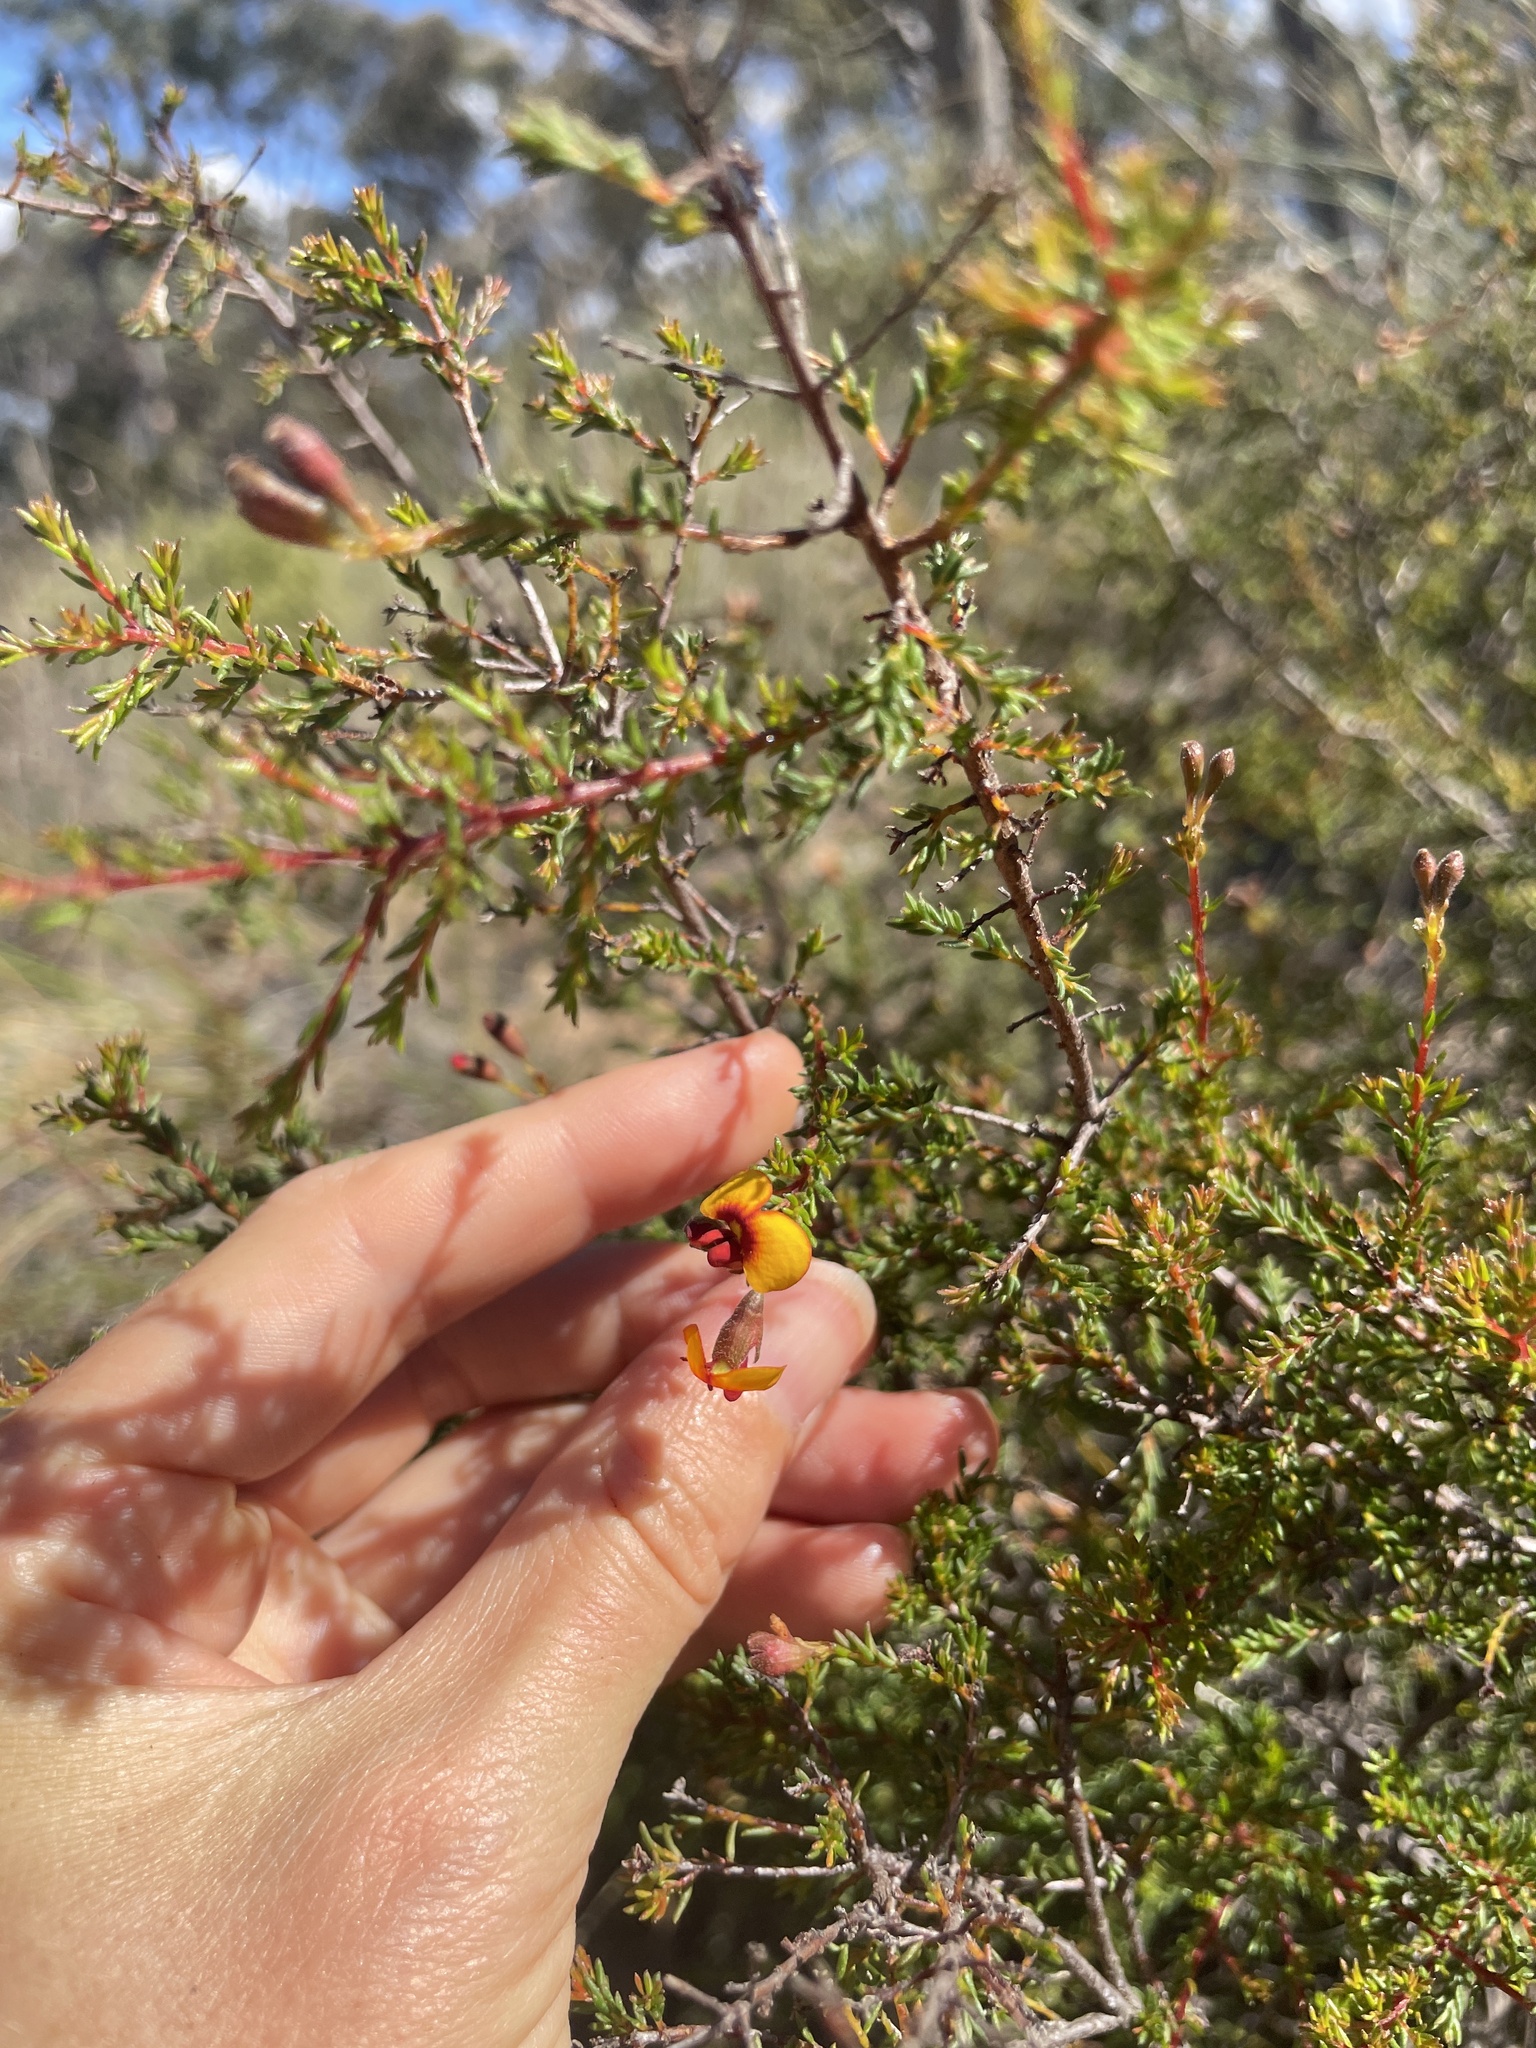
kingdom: Plantae
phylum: Tracheophyta
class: Magnoliopsida
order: Fabales
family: Fabaceae
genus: Dillwynia
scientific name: Dillwynia phylicoides
